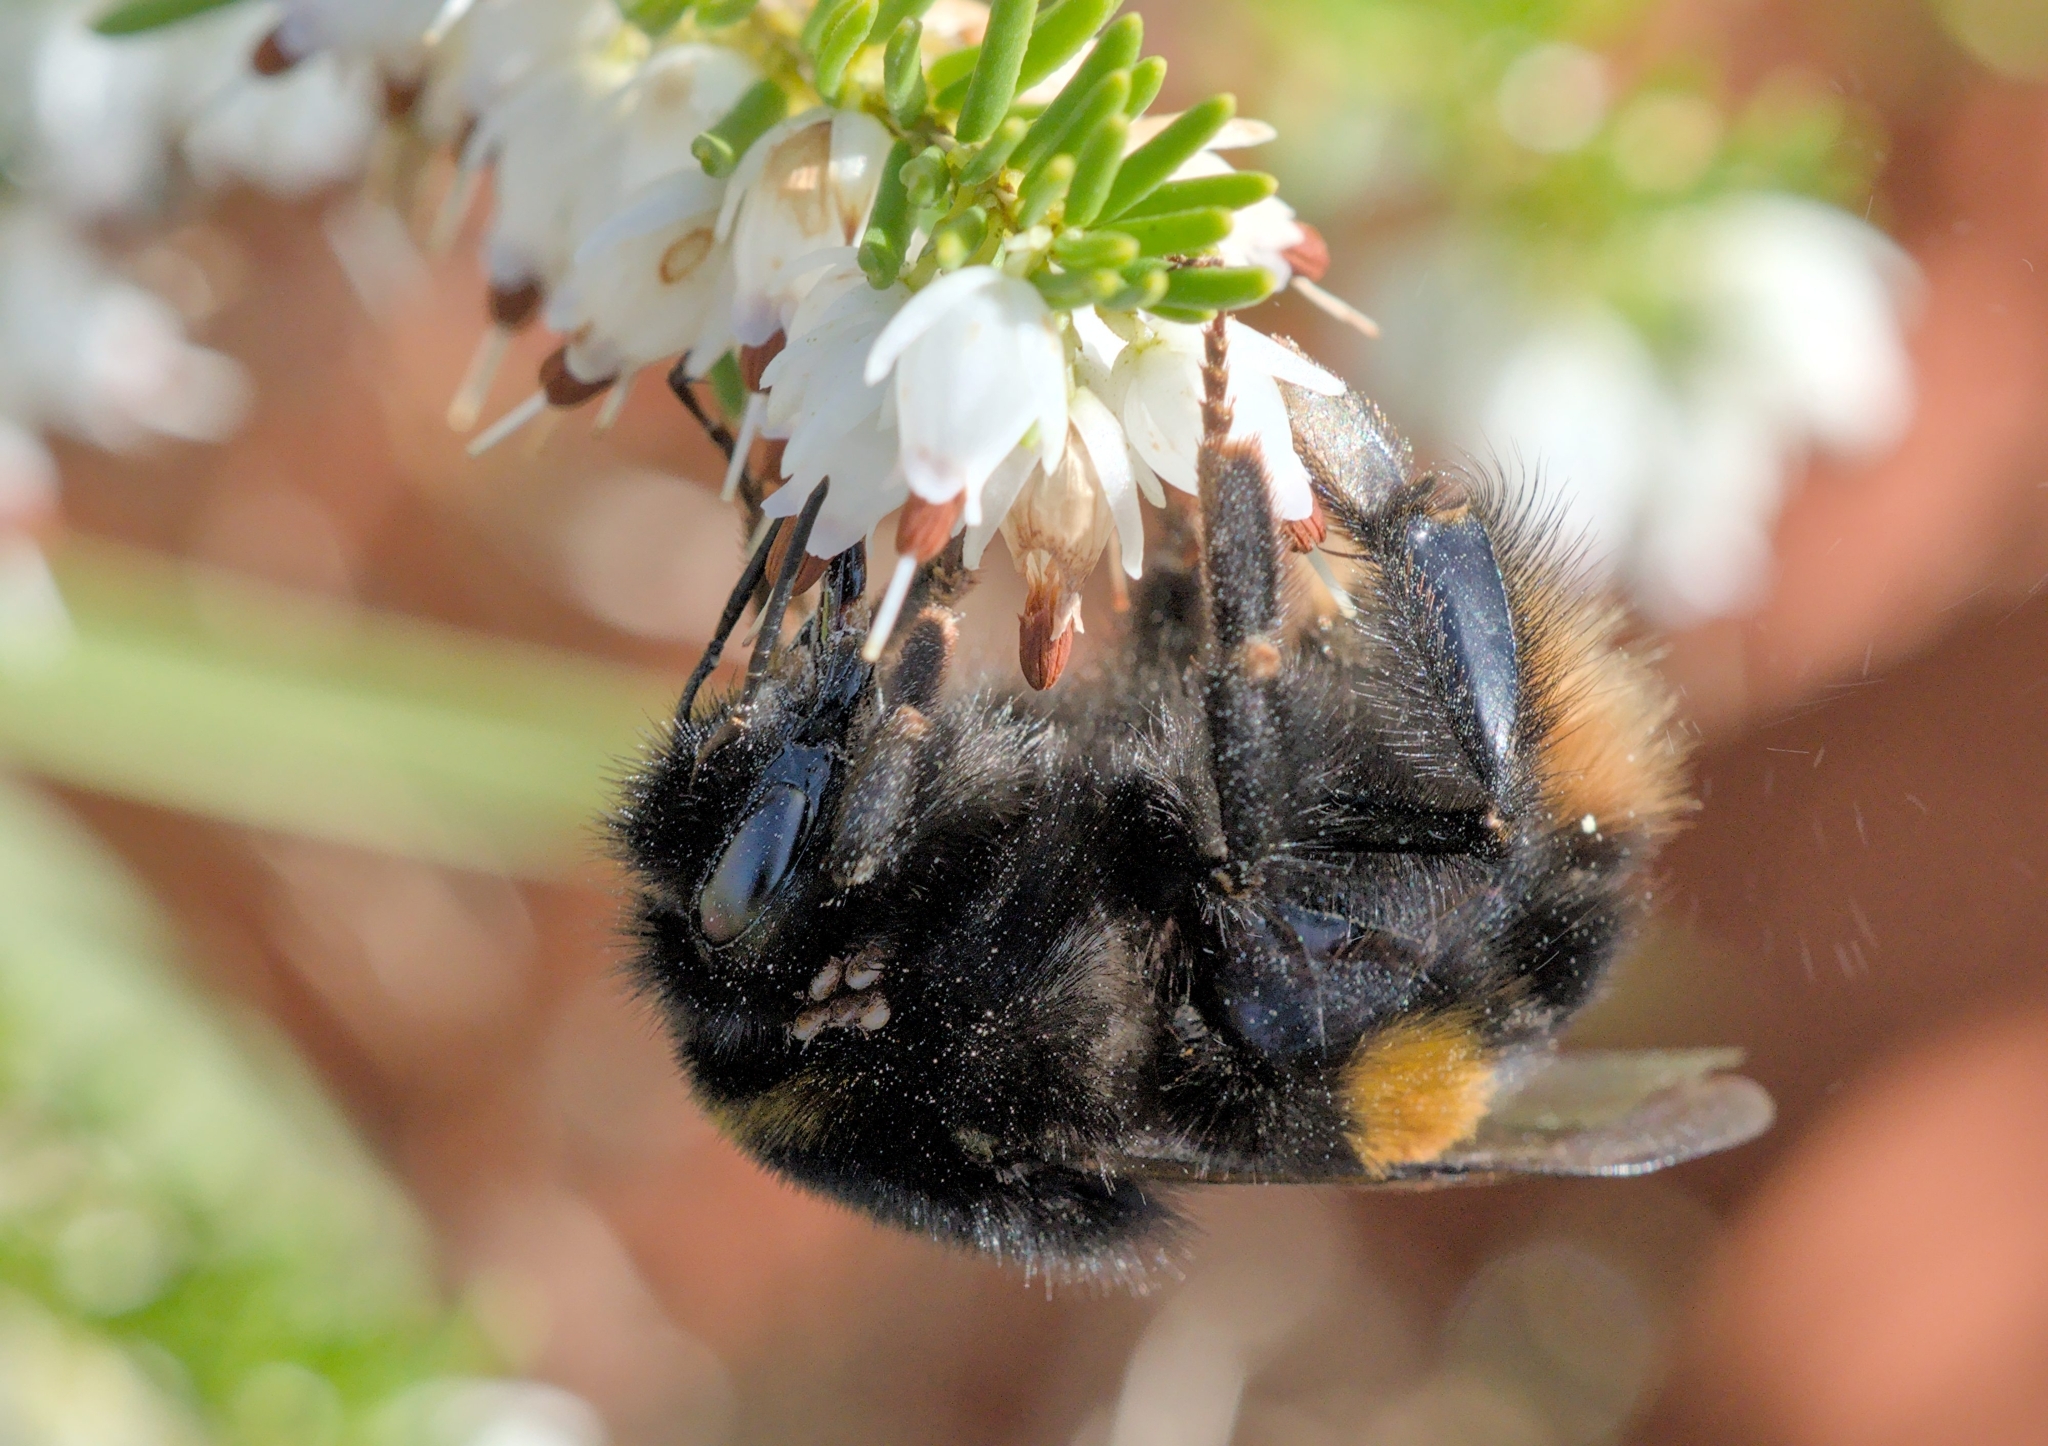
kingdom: Animalia
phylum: Arthropoda
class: Insecta
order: Hymenoptera
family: Apidae
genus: Bombus
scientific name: Bombus terrestris
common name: Buff-tailed bumblebee
